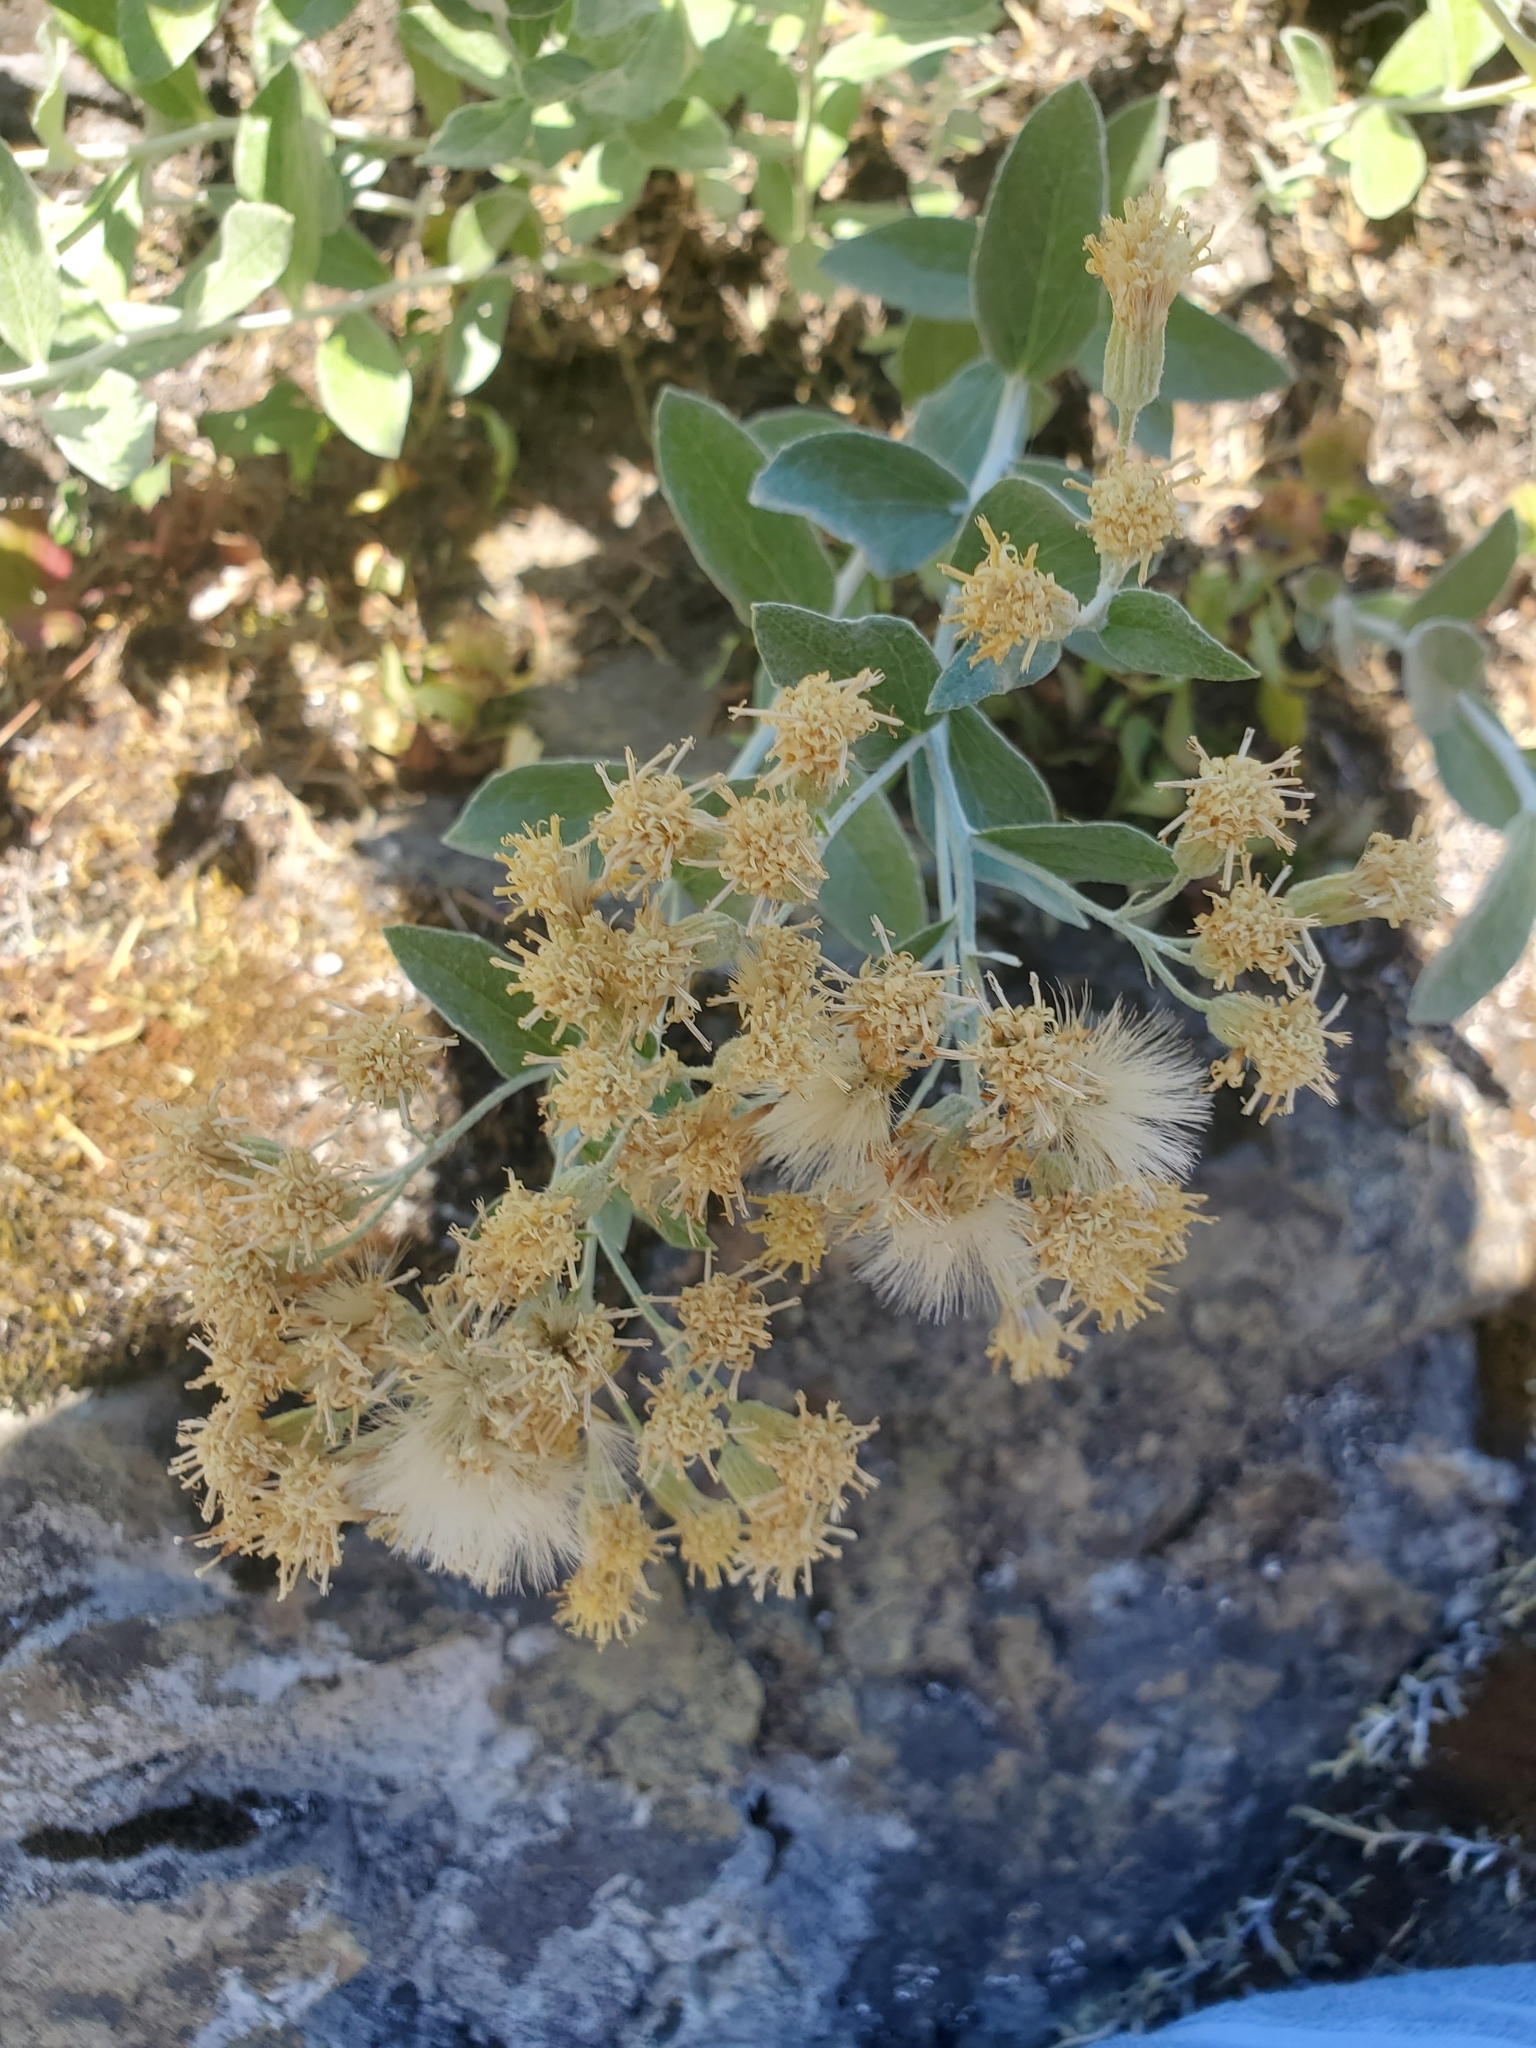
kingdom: Plantae
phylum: Tracheophyta
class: Magnoliopsida
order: Asterales
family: Asteraceae
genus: Luina
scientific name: Luina hypoleuca
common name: Little-leaved luina
